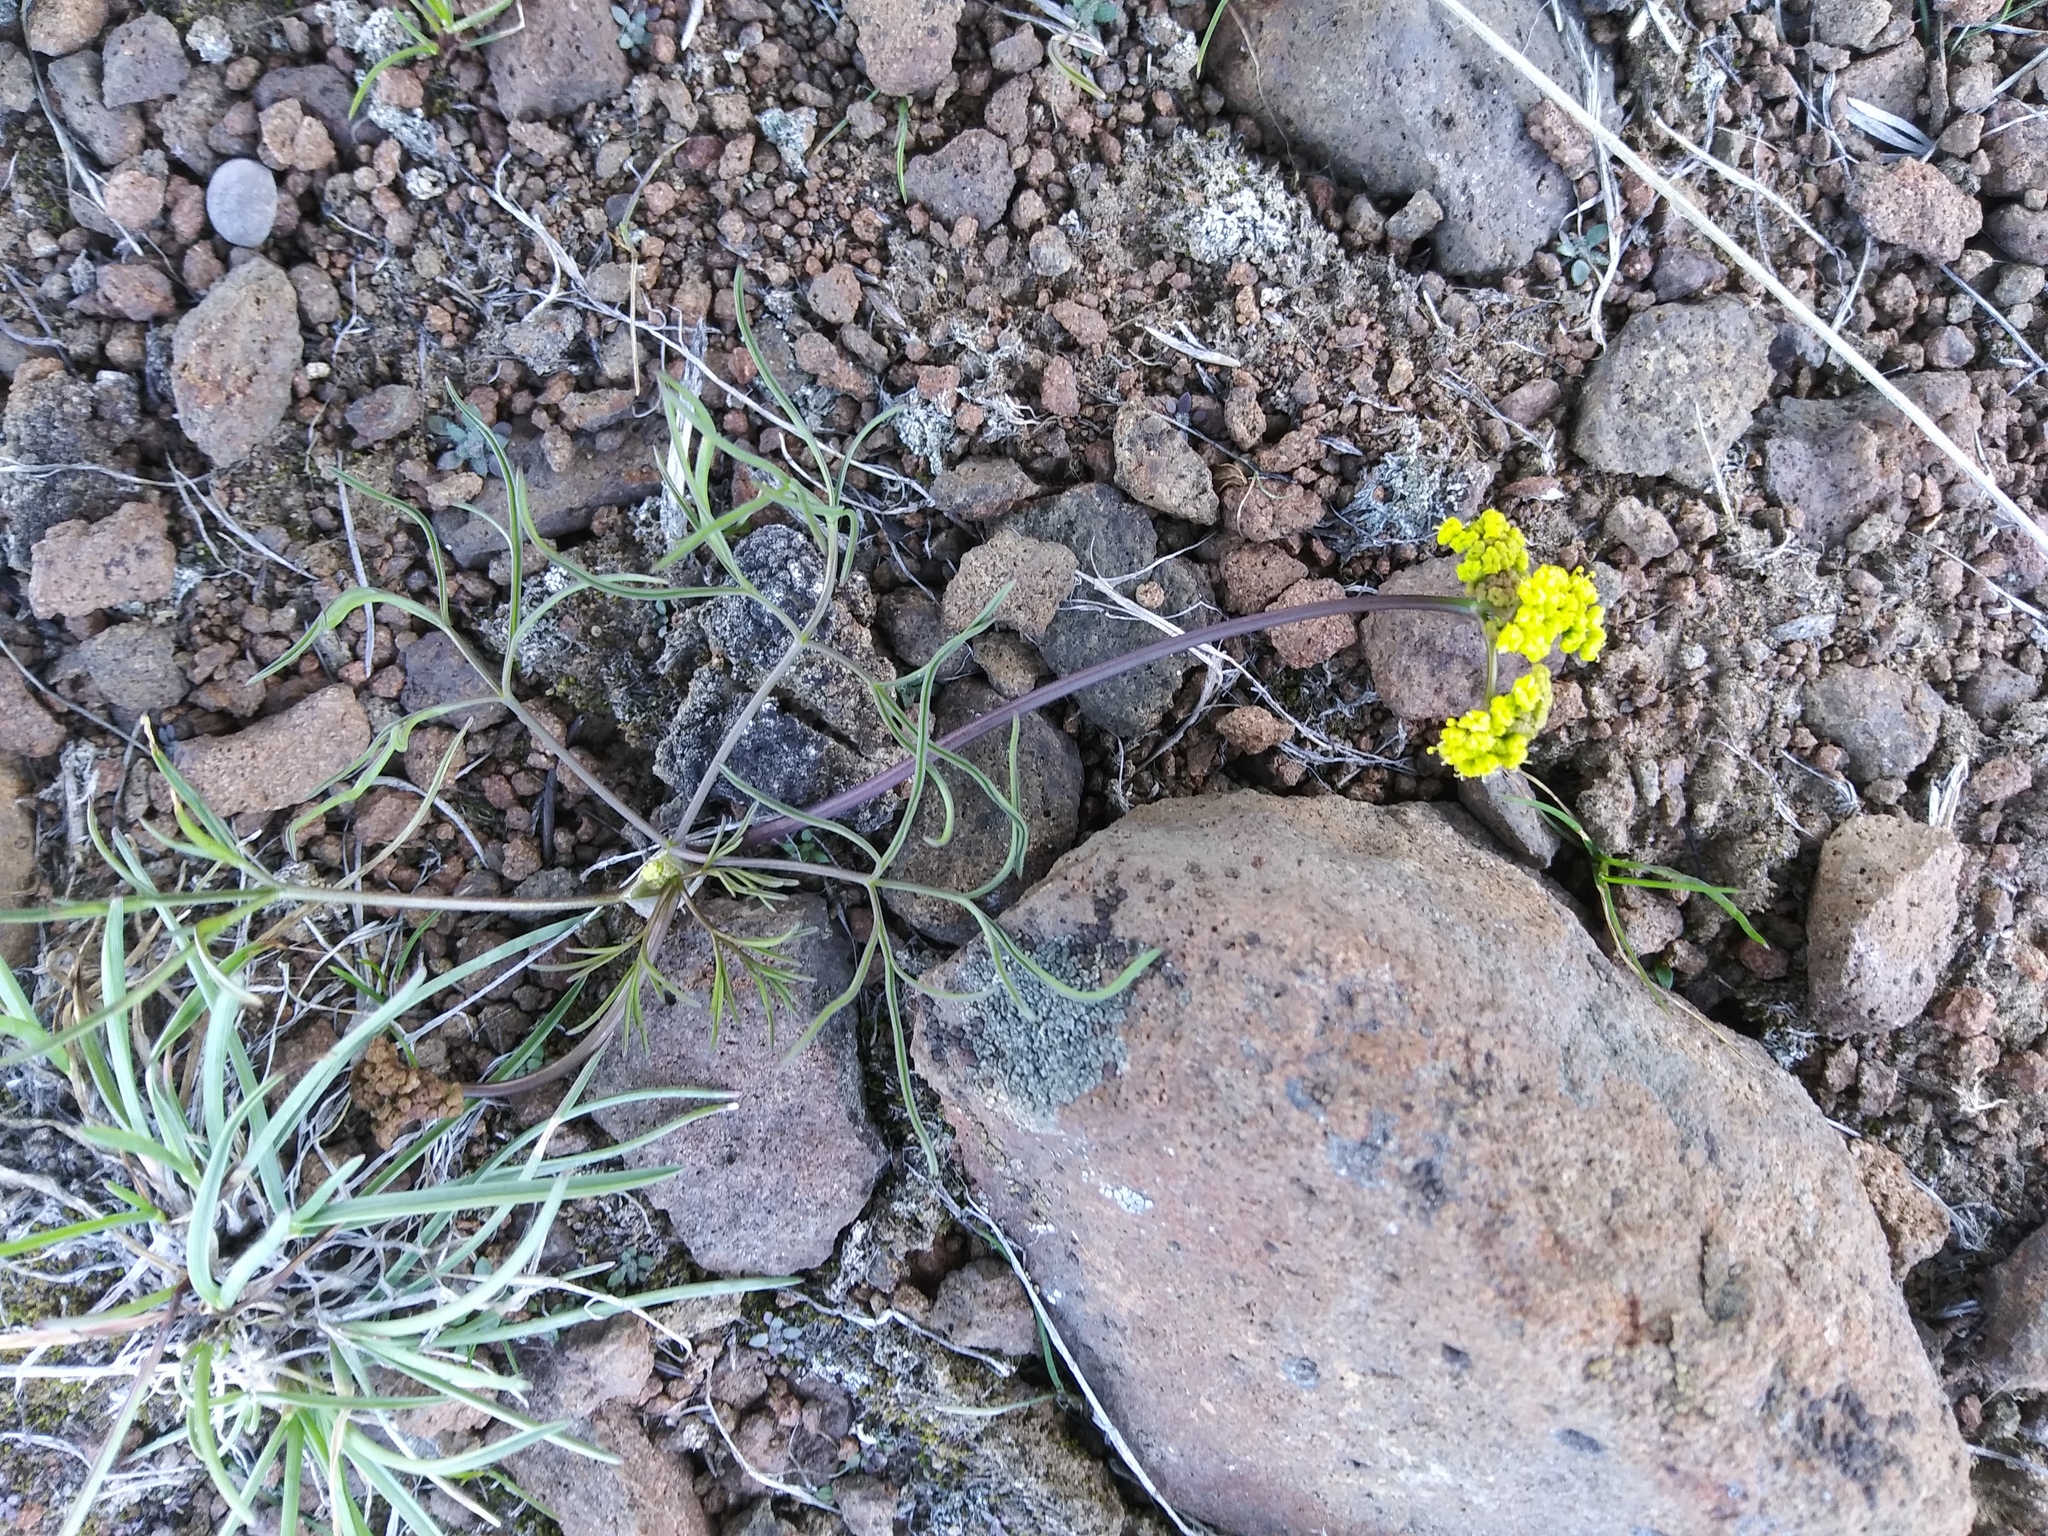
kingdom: Plantae
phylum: Tracheophyta
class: Magnoliopsida
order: Apiales
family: Apiaceae
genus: Lomatium
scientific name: Lomatium farinosum
